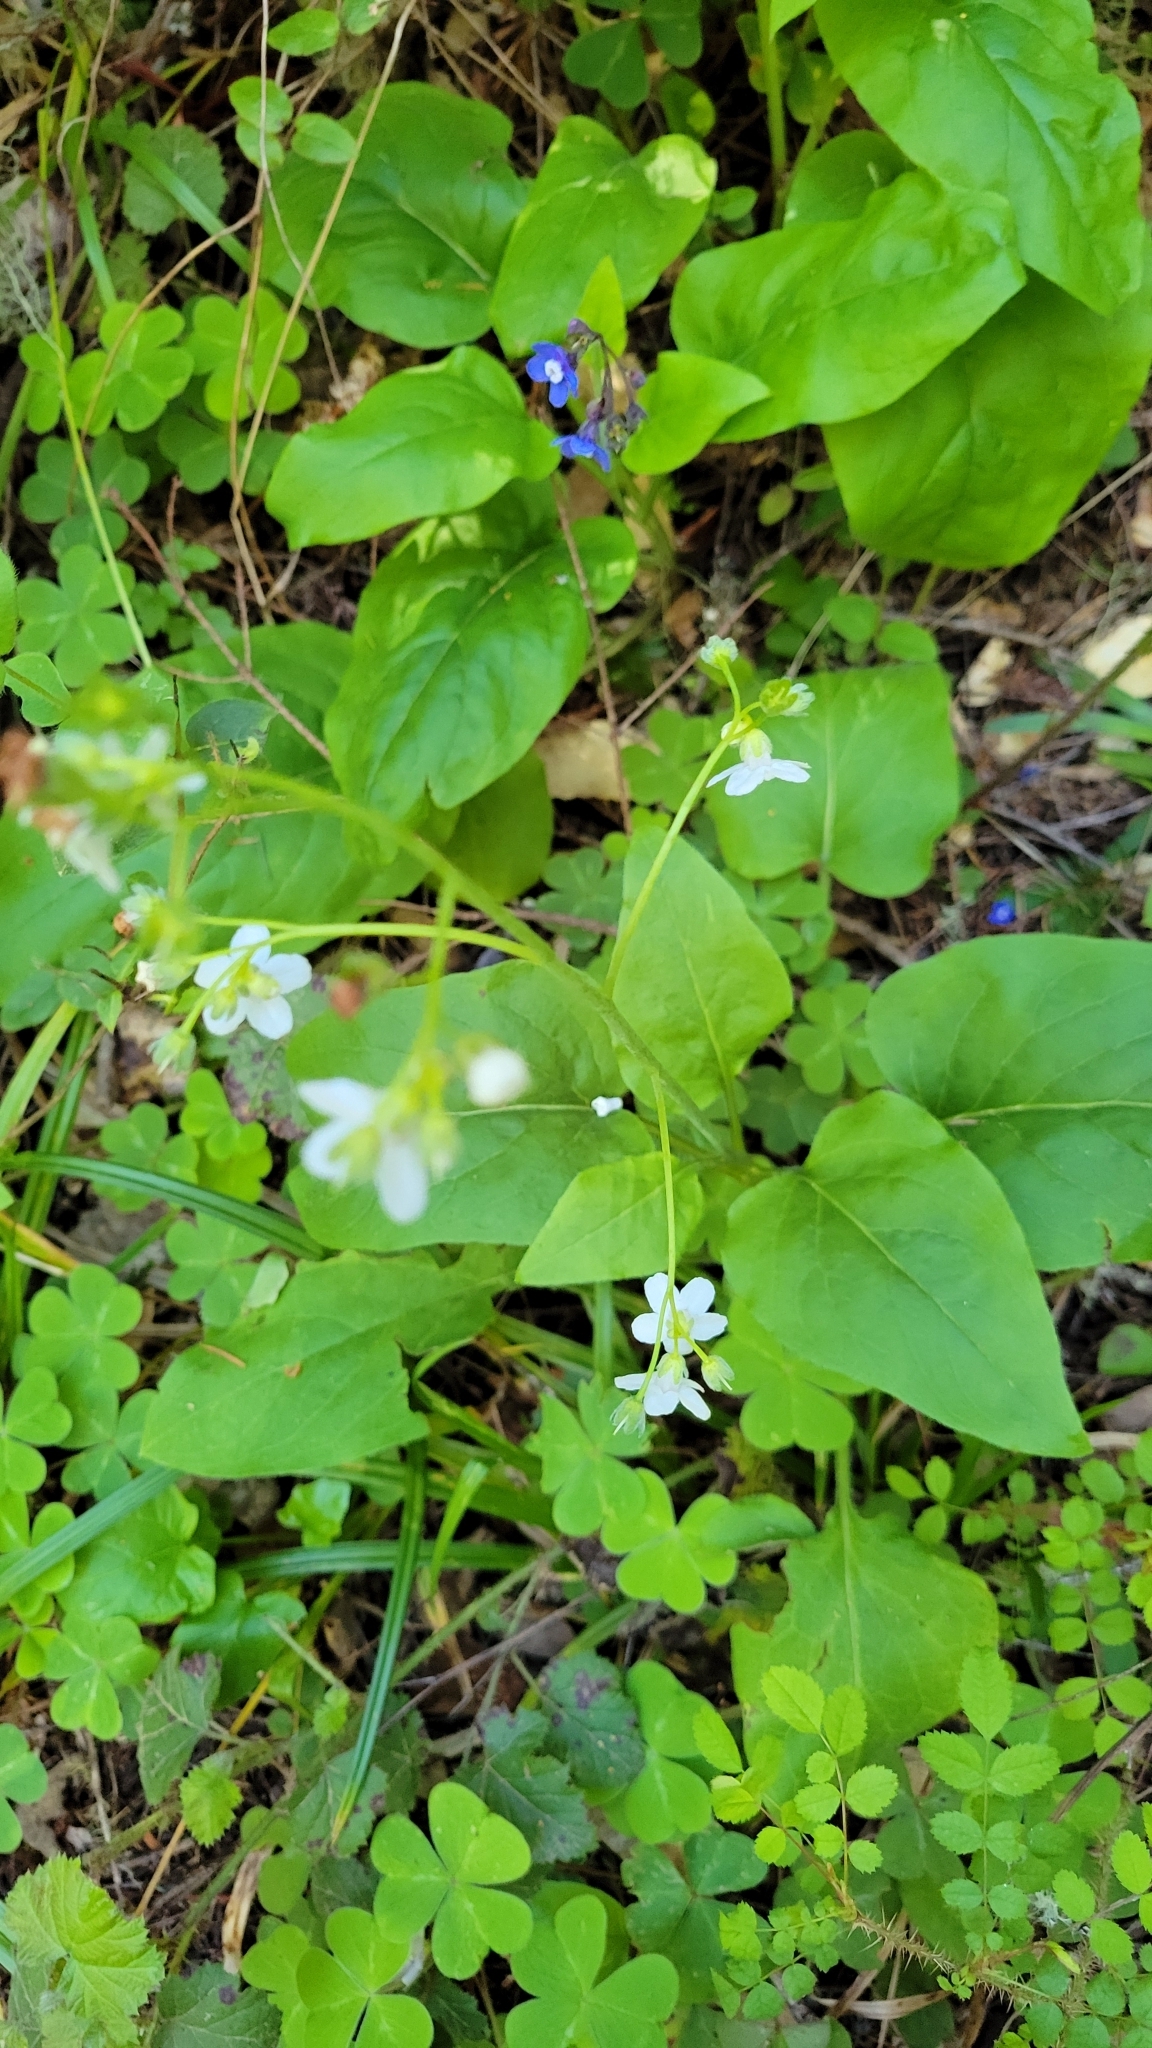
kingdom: Plantae
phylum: Tracheophyta
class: Magnoliopsida
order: Boraginales
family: Boraginaceae
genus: Adelinia
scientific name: Adelinia grande
